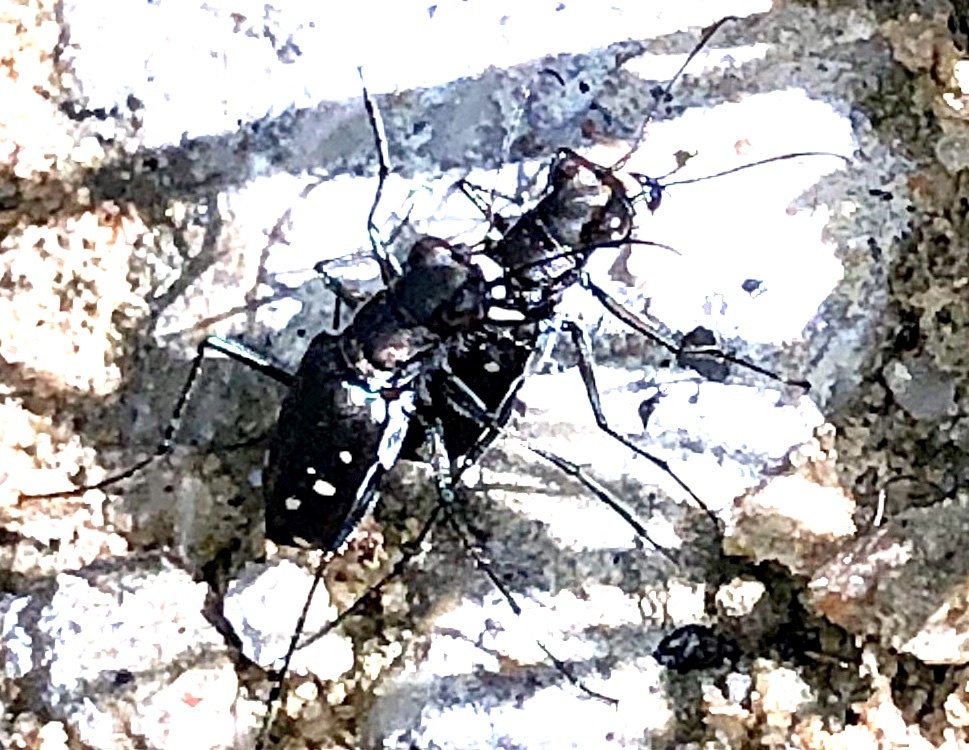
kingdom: Animalia
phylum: Arthropoda
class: Insecta
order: Coleoptera
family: Carabidae
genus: Cicindela
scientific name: Cicindela ocellata
